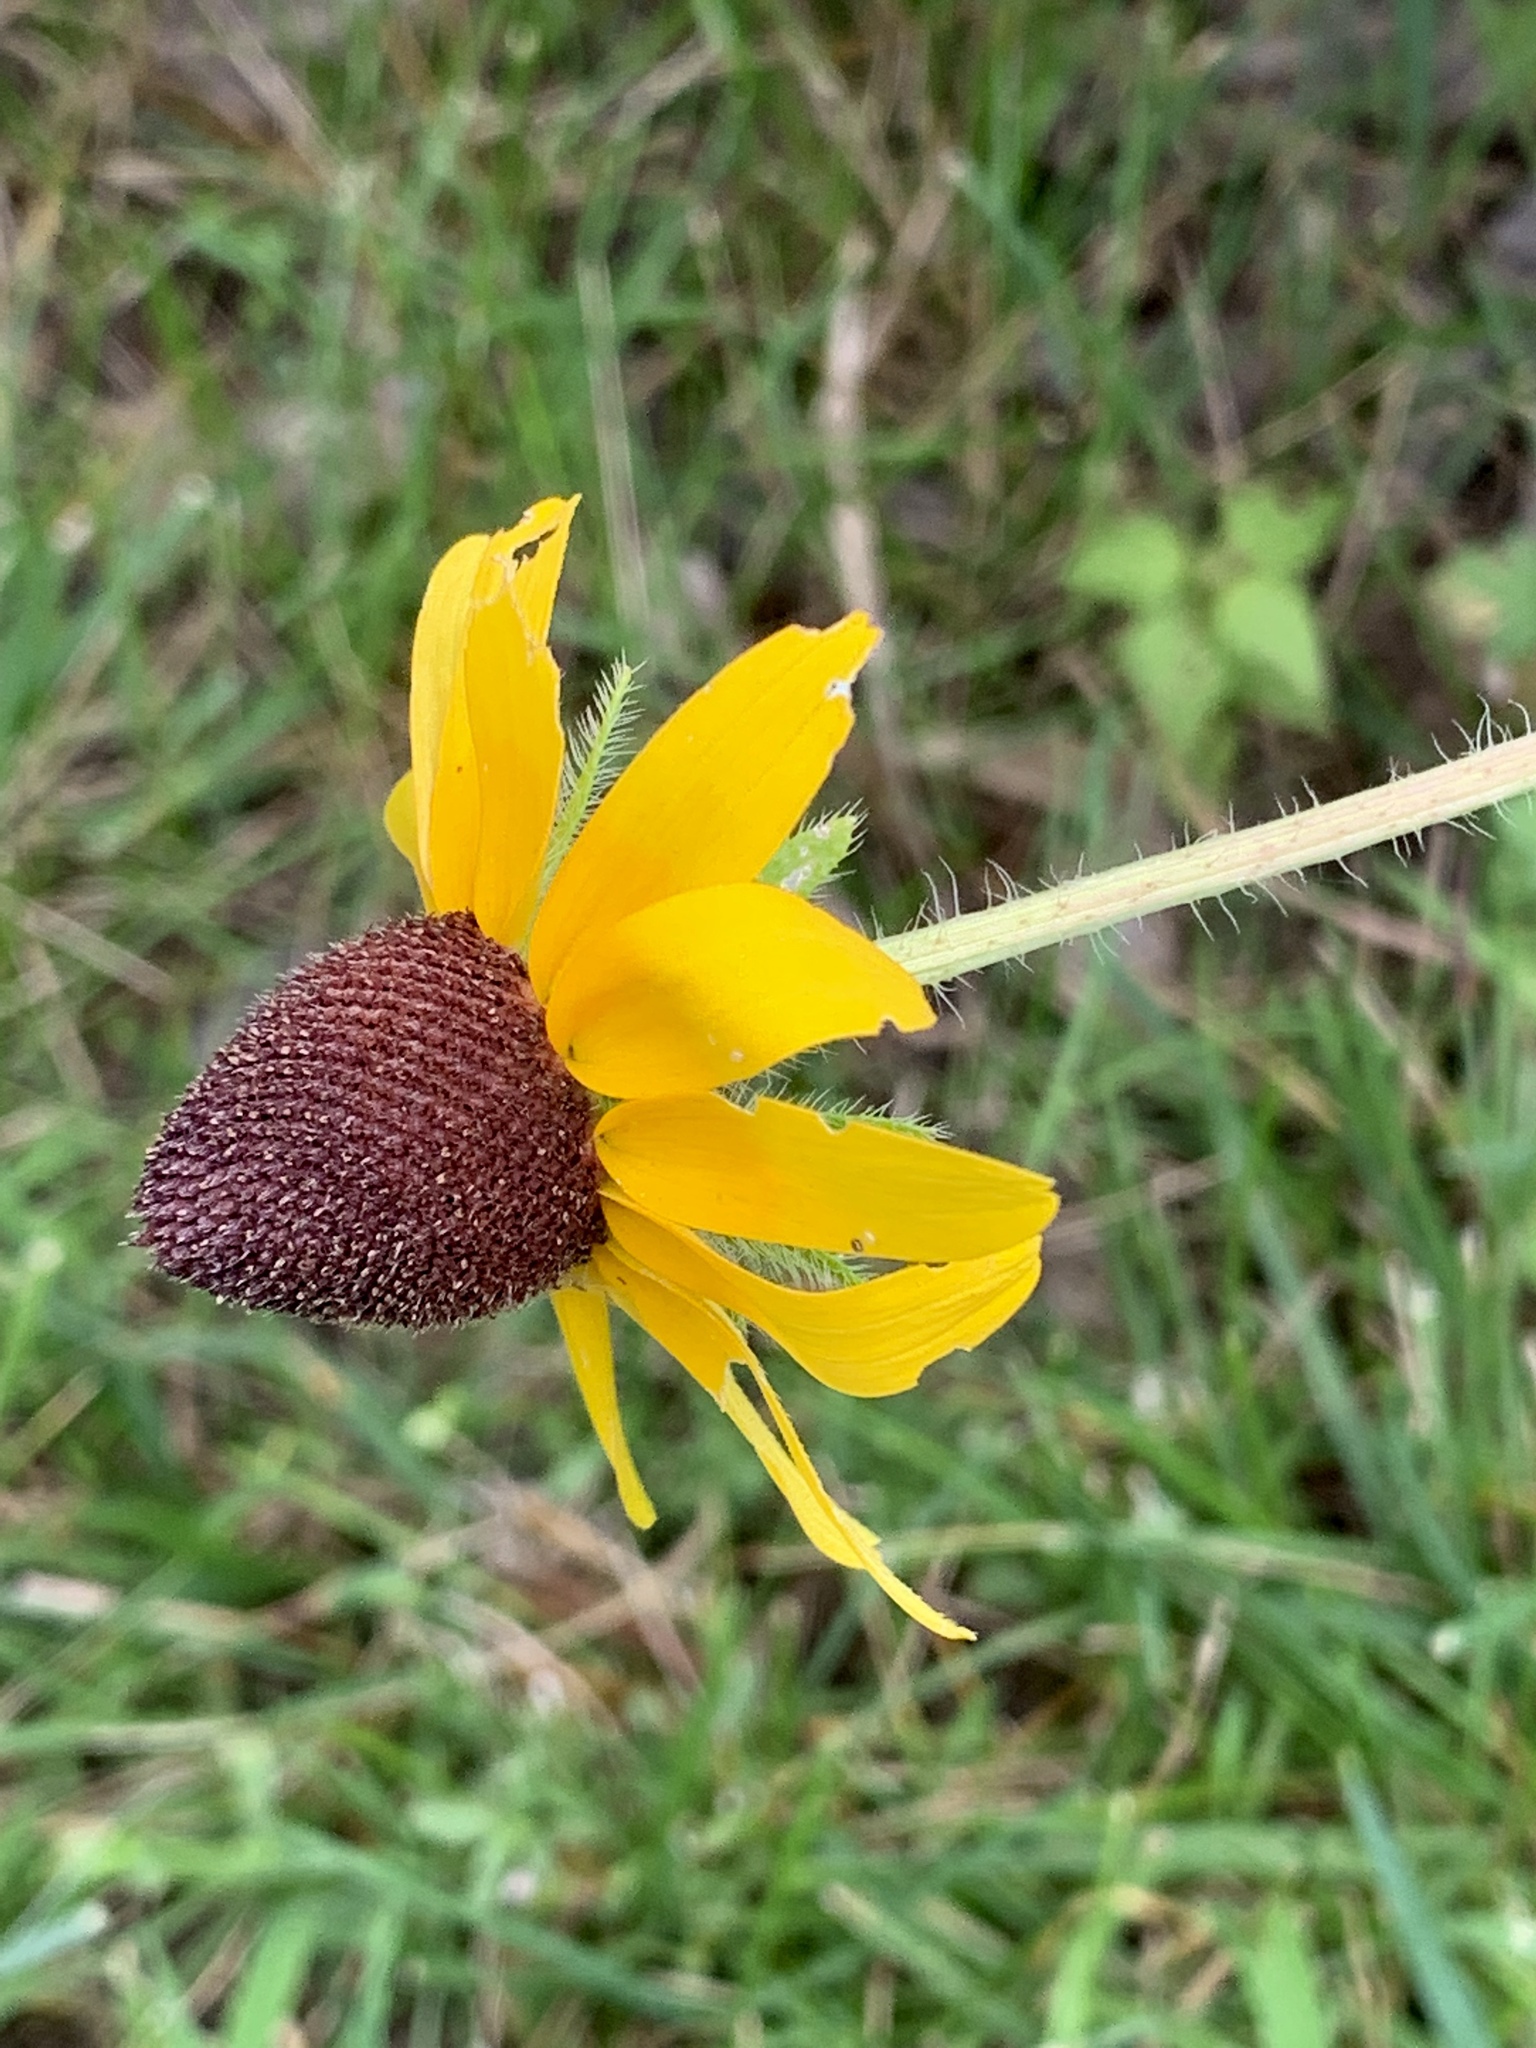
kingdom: Plantae
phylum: Tracheophyta
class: Magnoliopsida
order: Asterales
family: Asteraceae
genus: Rudbeckia
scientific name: Rudbeckia hirta
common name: Black-eyed-susan
